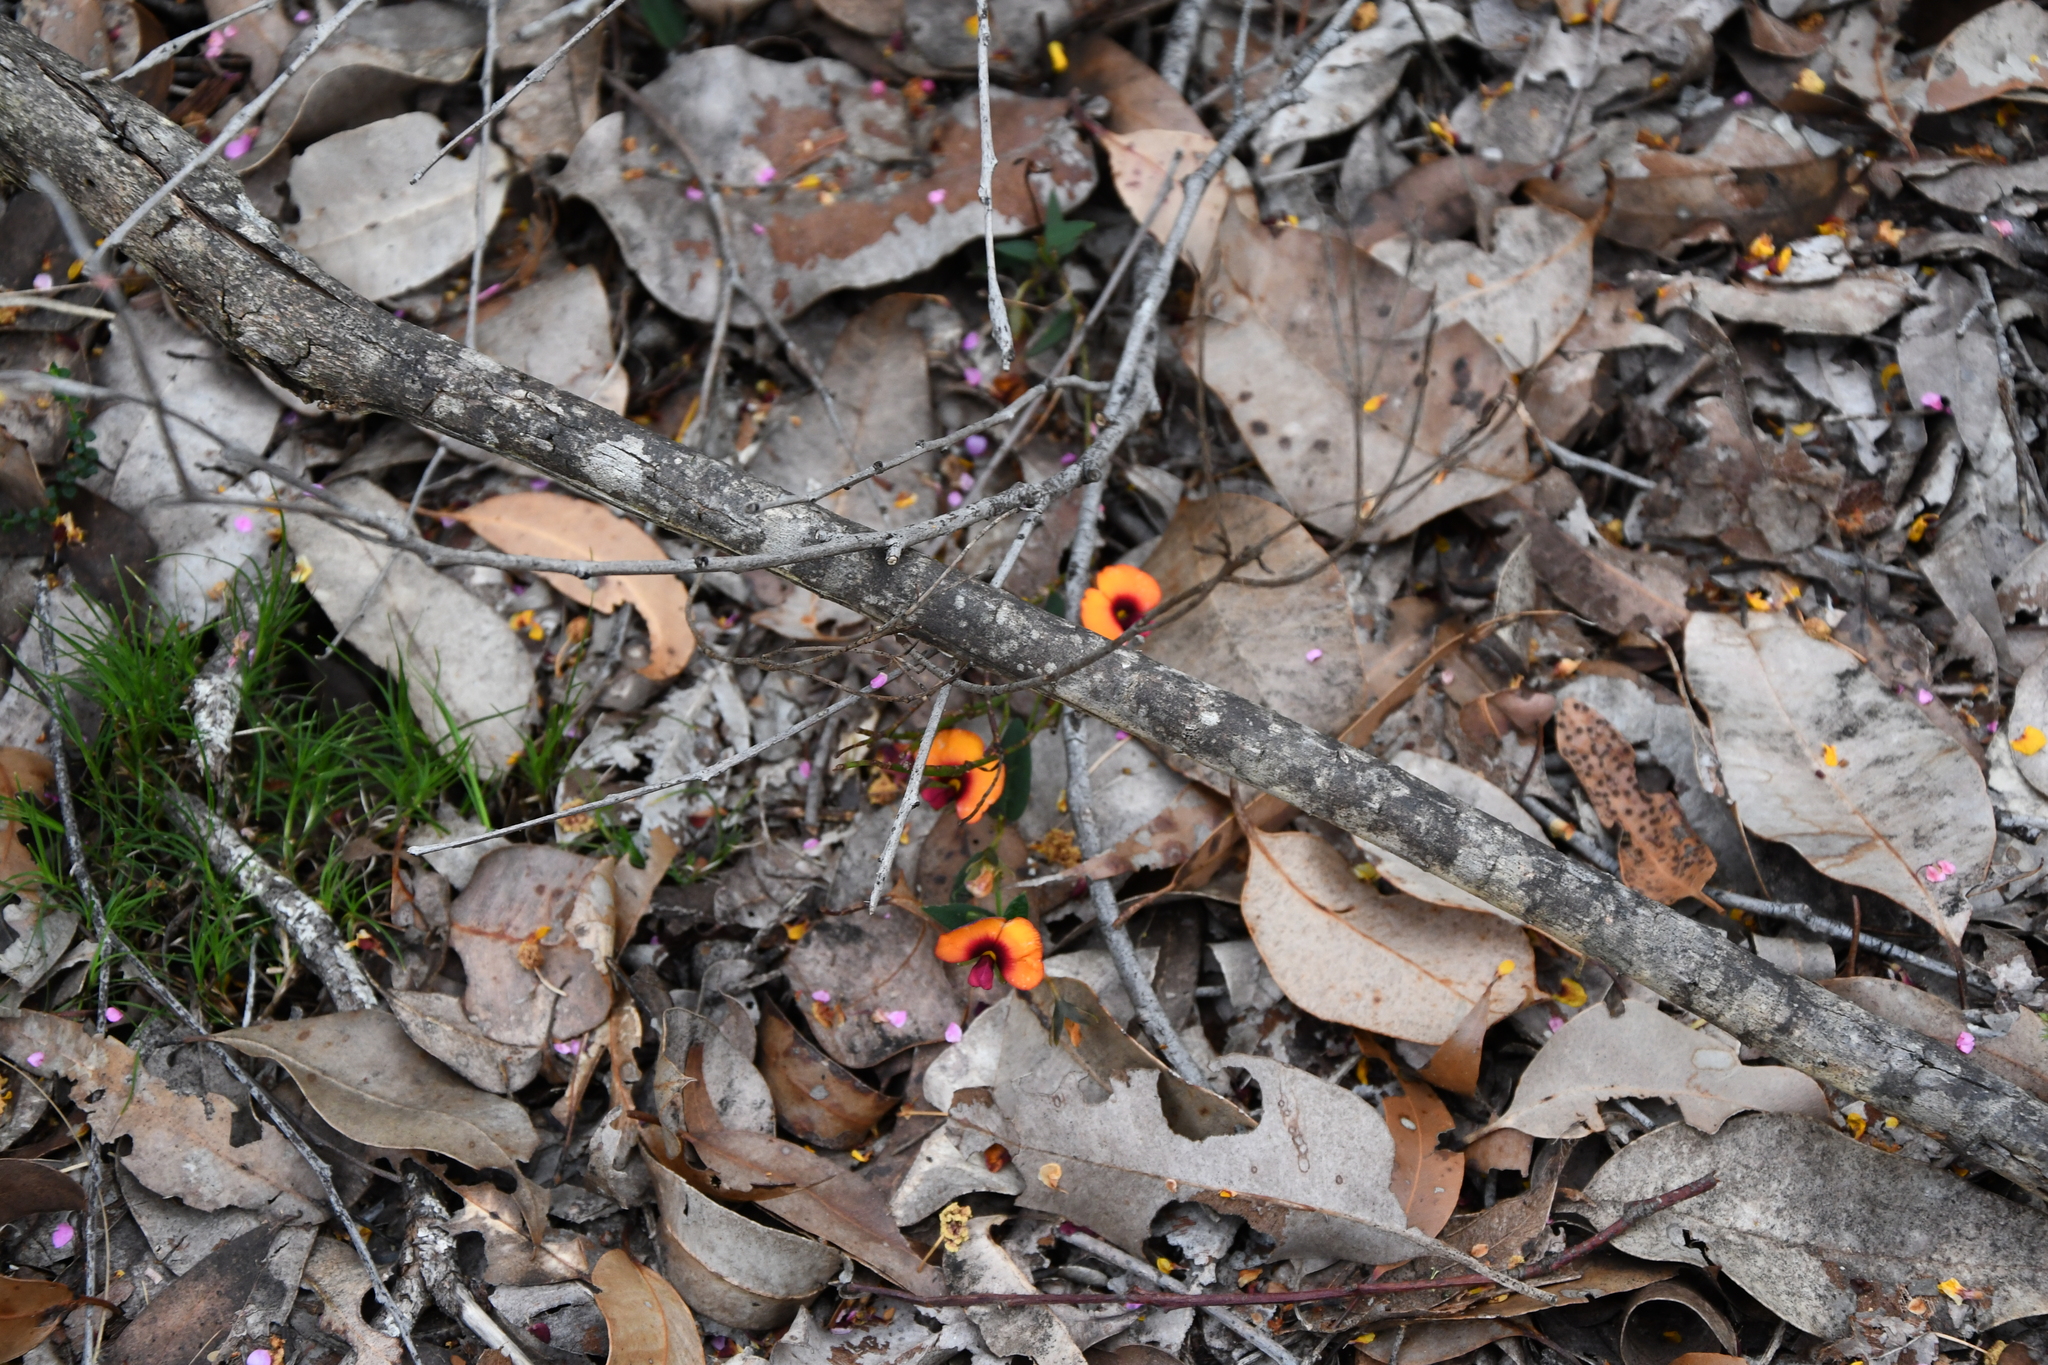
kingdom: Plantae
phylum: Tracheophyta
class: Magnoliopsida
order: Fabales
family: Fabaceae
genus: Gompholobium
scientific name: Gompholobium ovatum
